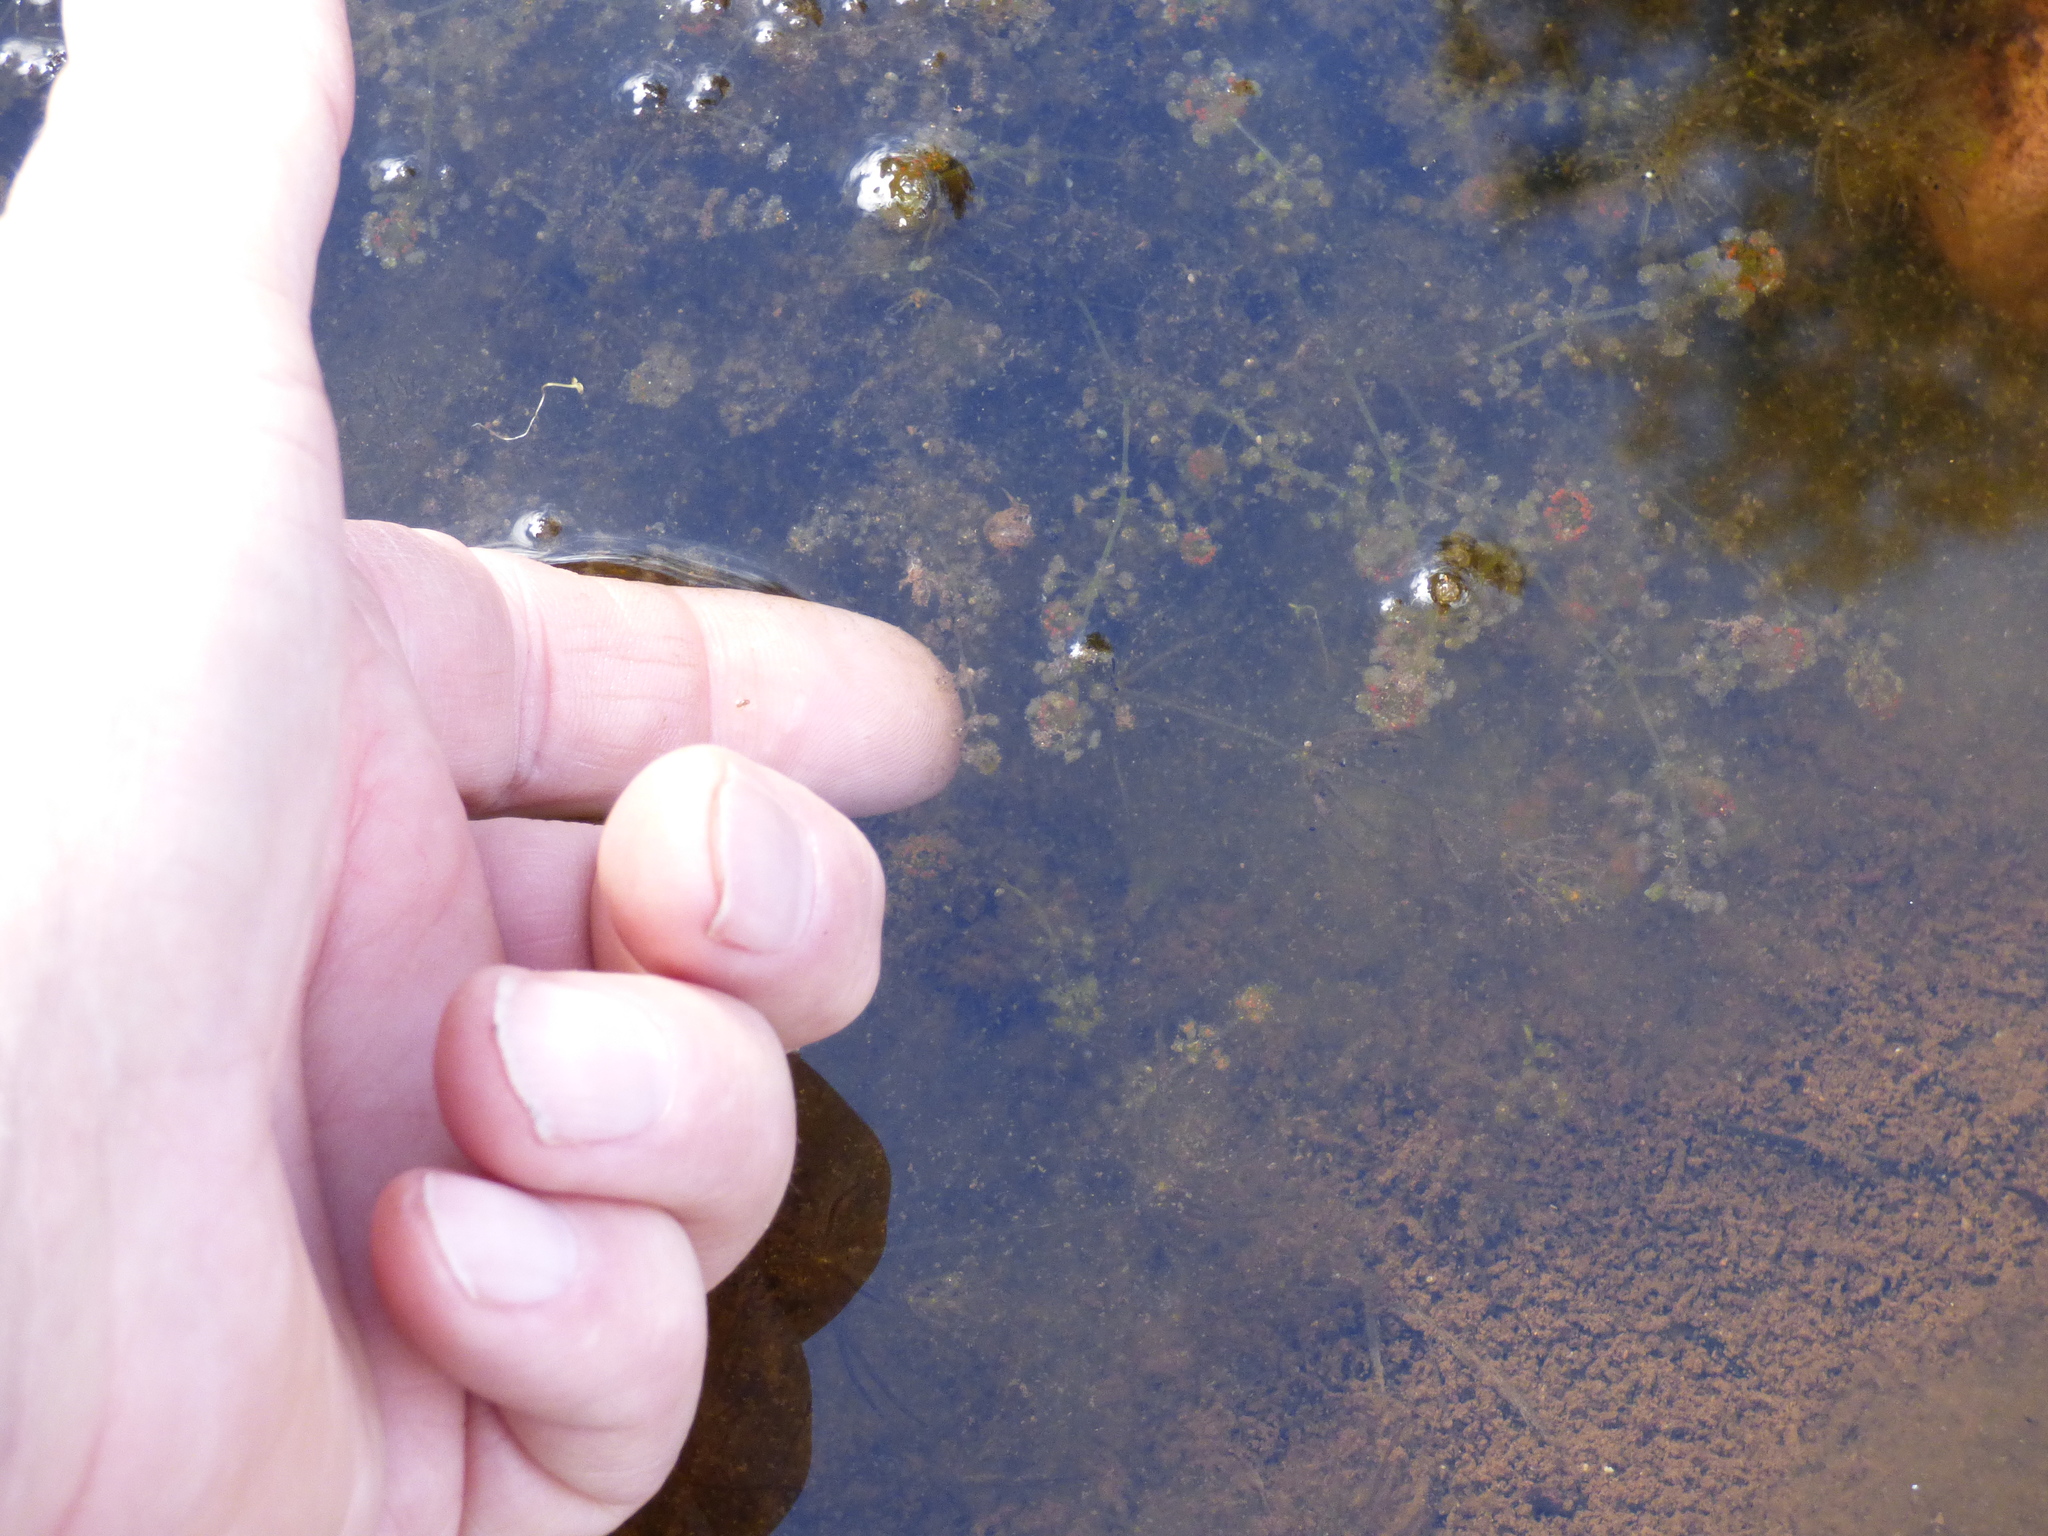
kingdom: Plantae
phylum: Charophyta
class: Charophyceae
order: Charales
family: Characeae
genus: Nitella
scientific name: Nitella sonderi
